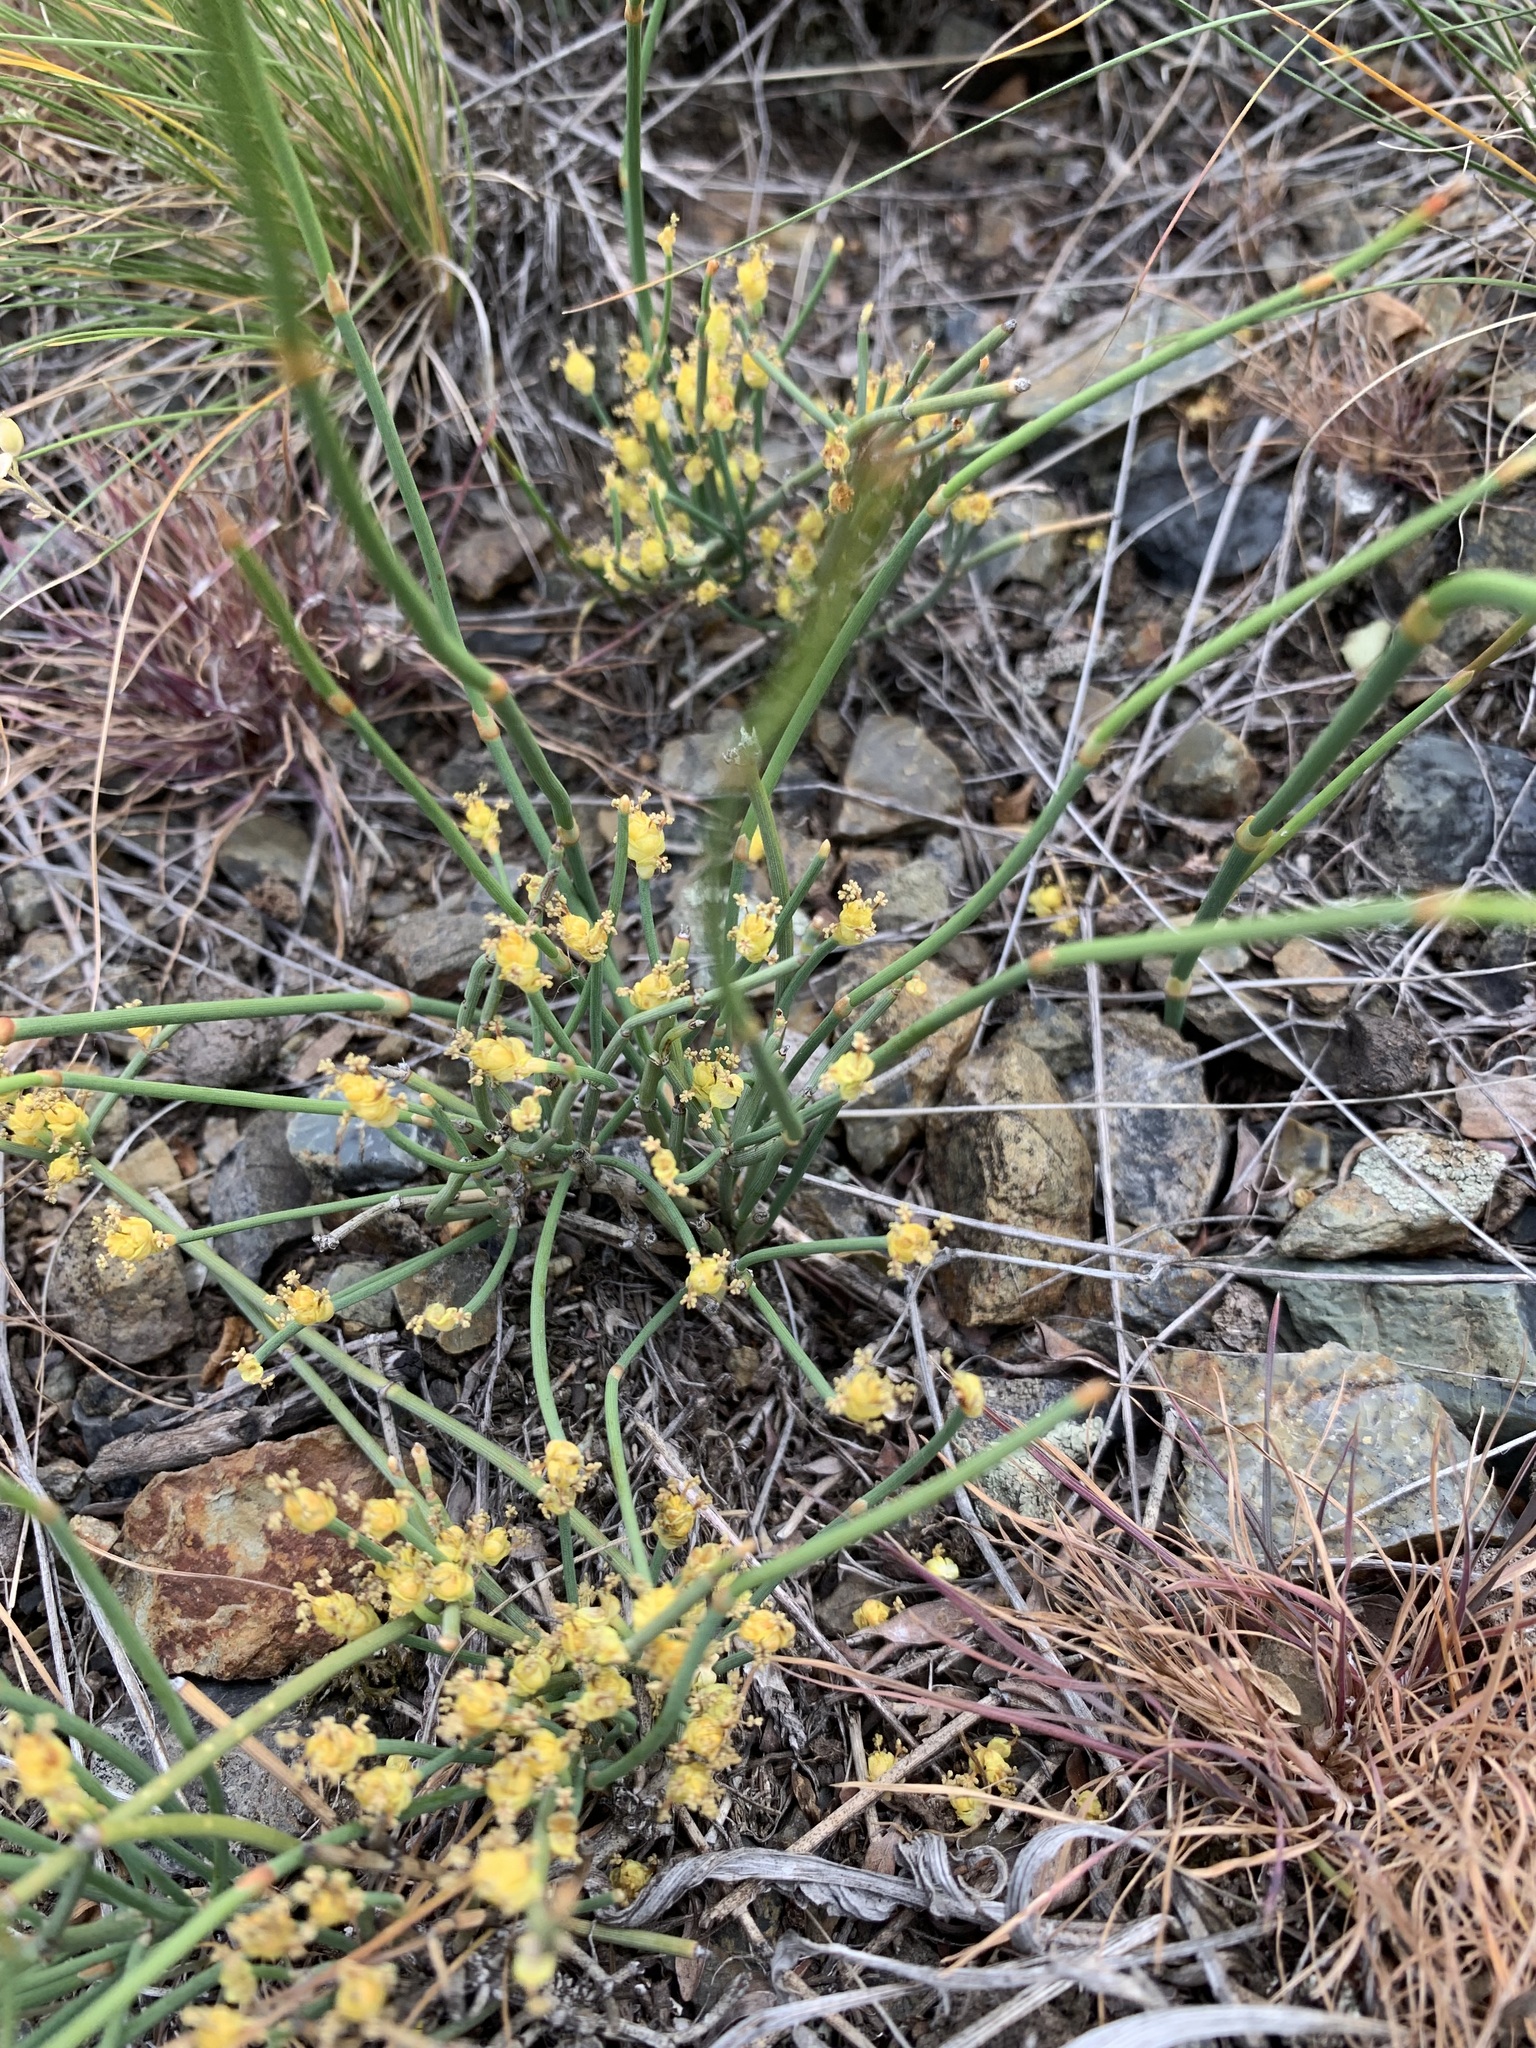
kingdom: Plantae
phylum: Tracheophyta
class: Gnetopsida
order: Ephedrales
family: Ephedraceae
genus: Ephedra
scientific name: Ephedra distachya
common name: Sea grape
